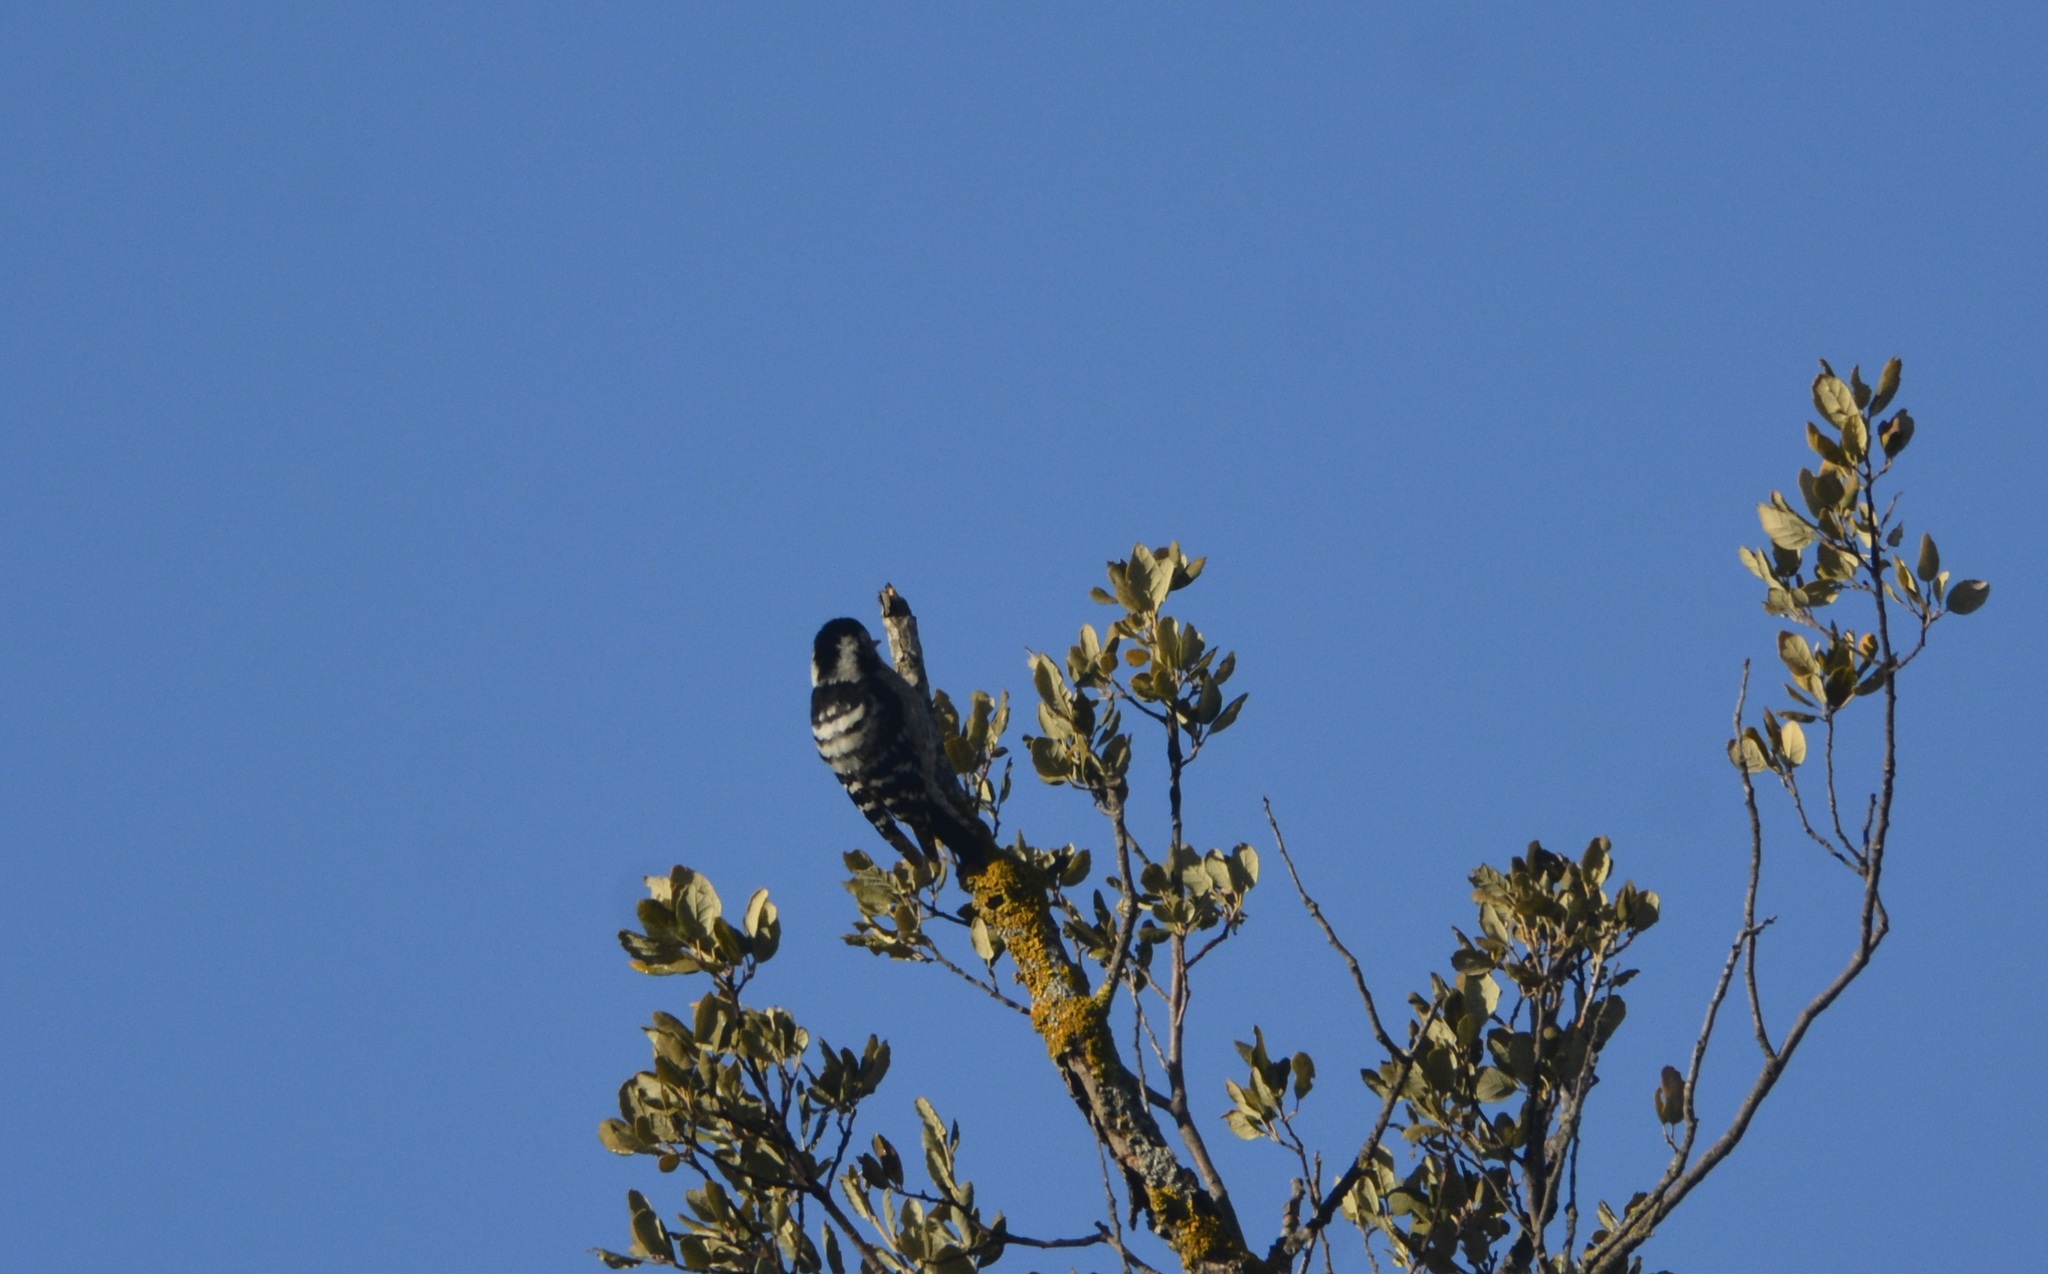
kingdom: Animalia
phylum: Chordata
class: Aves
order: Piciformes
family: Picidae
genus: Dryobates
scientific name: Dryobates minor
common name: Lesser spotted woodpecker
